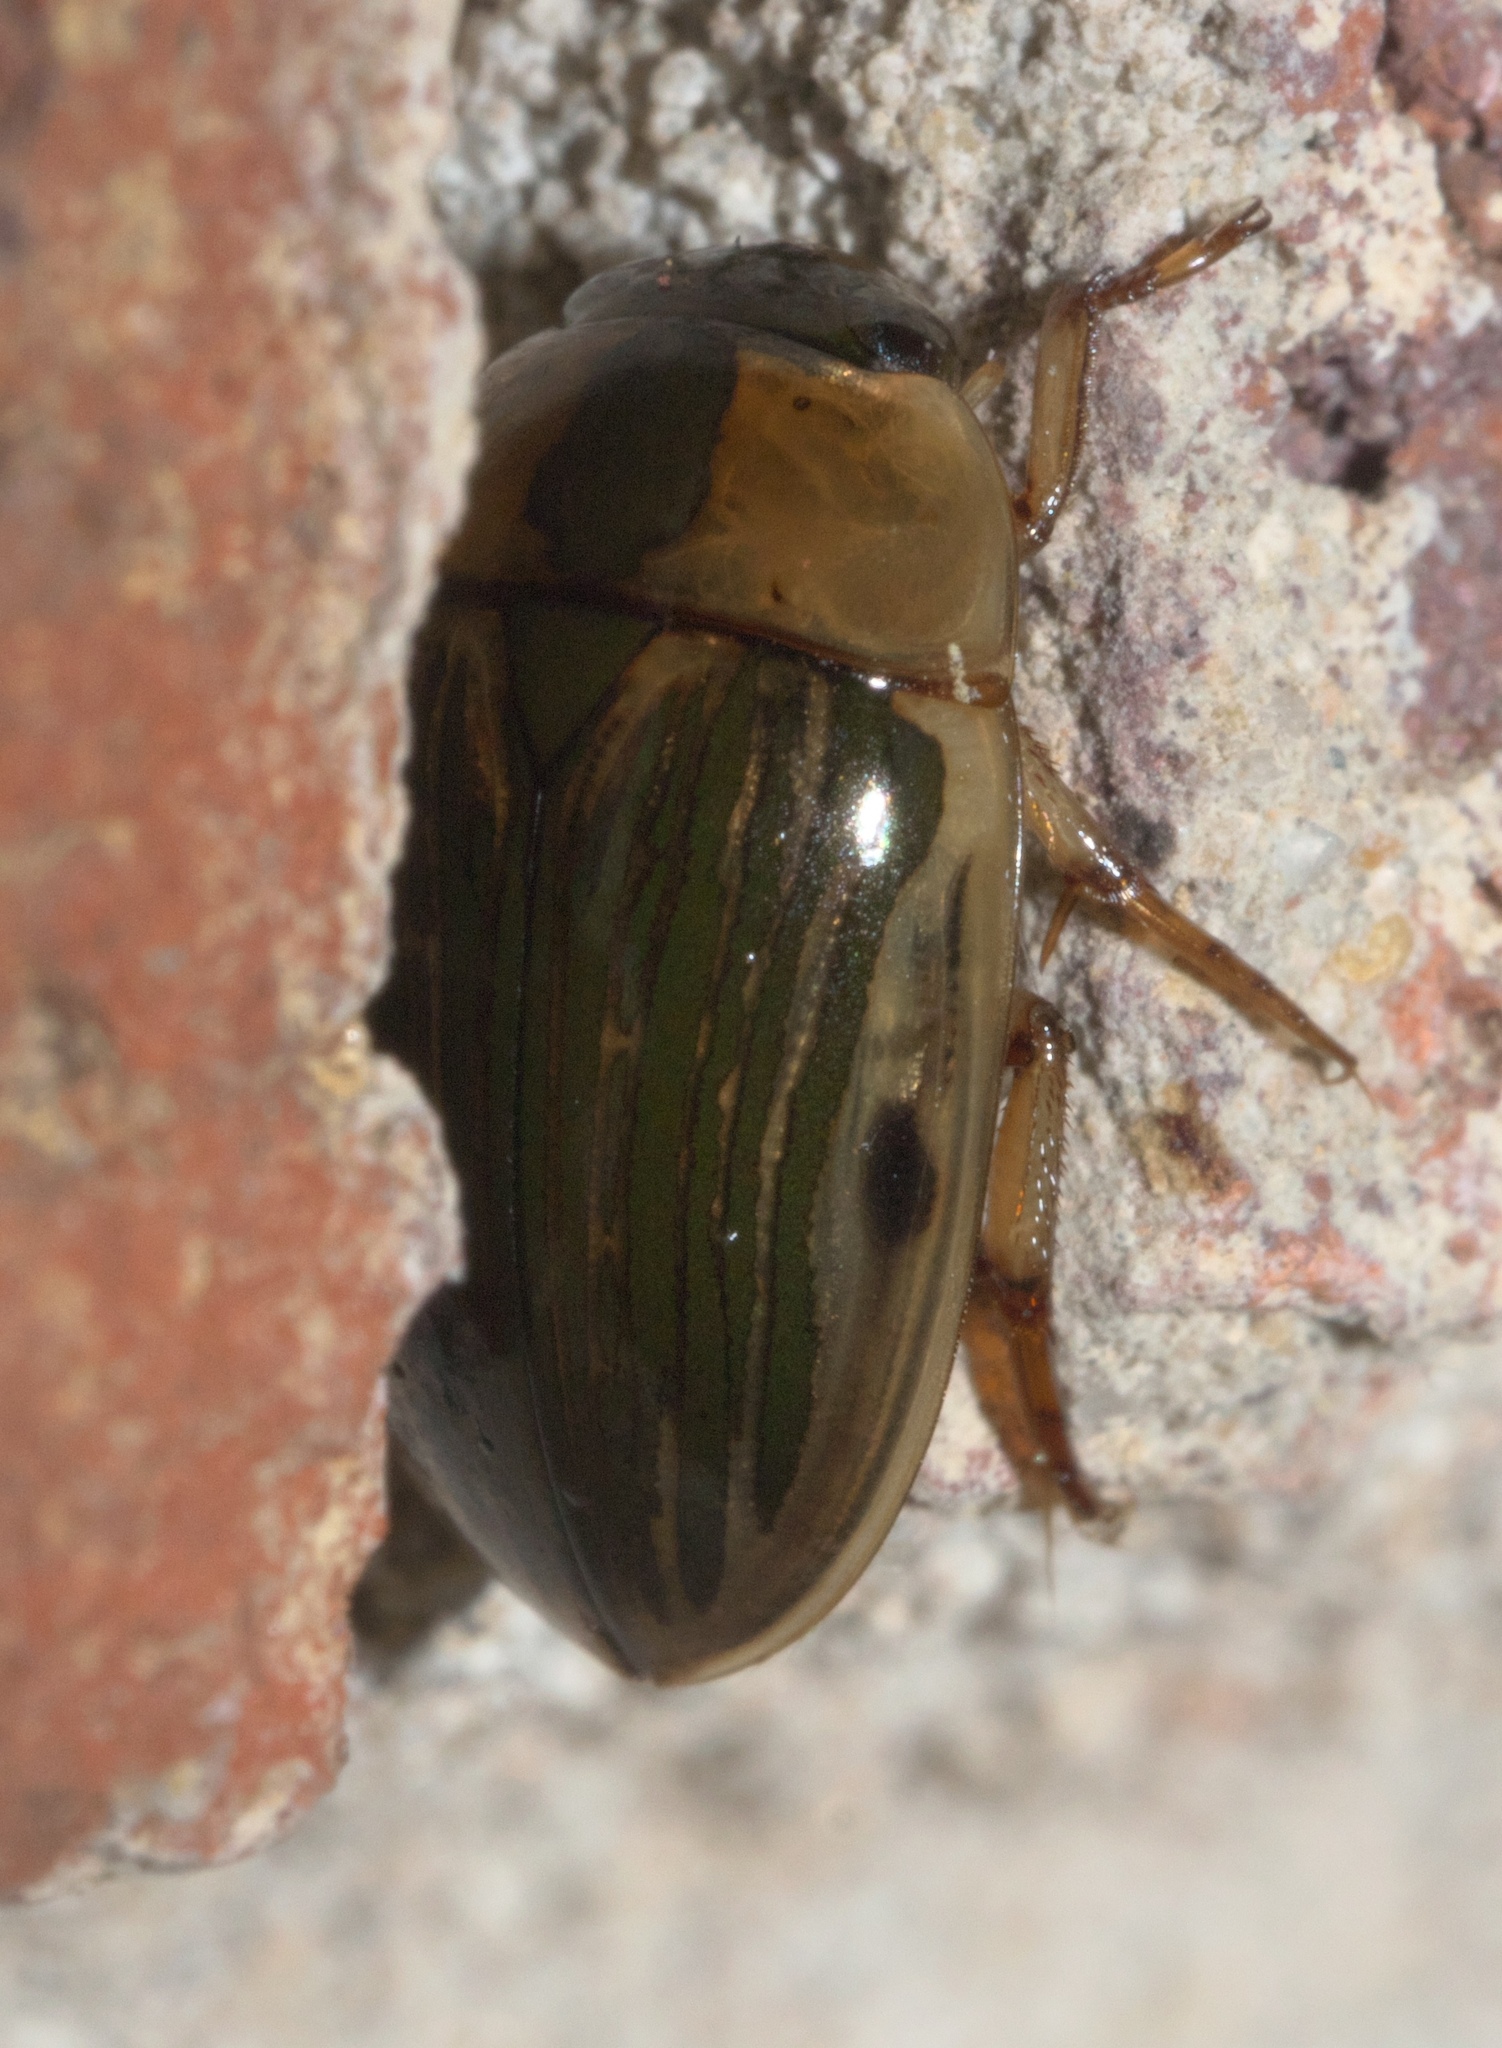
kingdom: Animalia
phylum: Arthropoda
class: Insecta
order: Coleoptera
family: Hydrophilidae
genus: Tropisternus
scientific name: Tropisternus collaris
